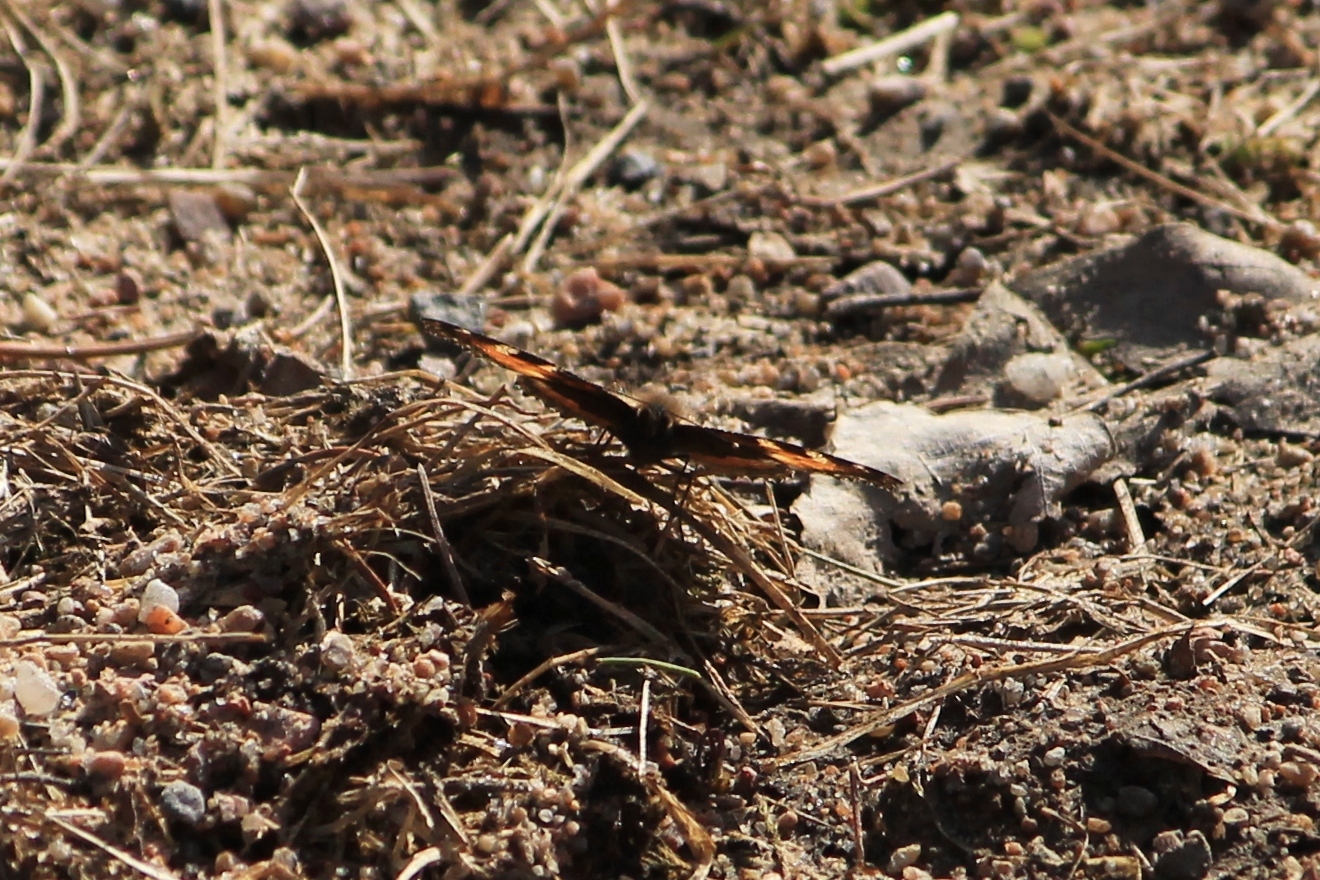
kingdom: Animalia
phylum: Arthropoda
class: Insecta
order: Lepidoptera
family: Nymphalidae
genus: Aglais
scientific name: Aglais urticae
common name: Small tortoiseshell
